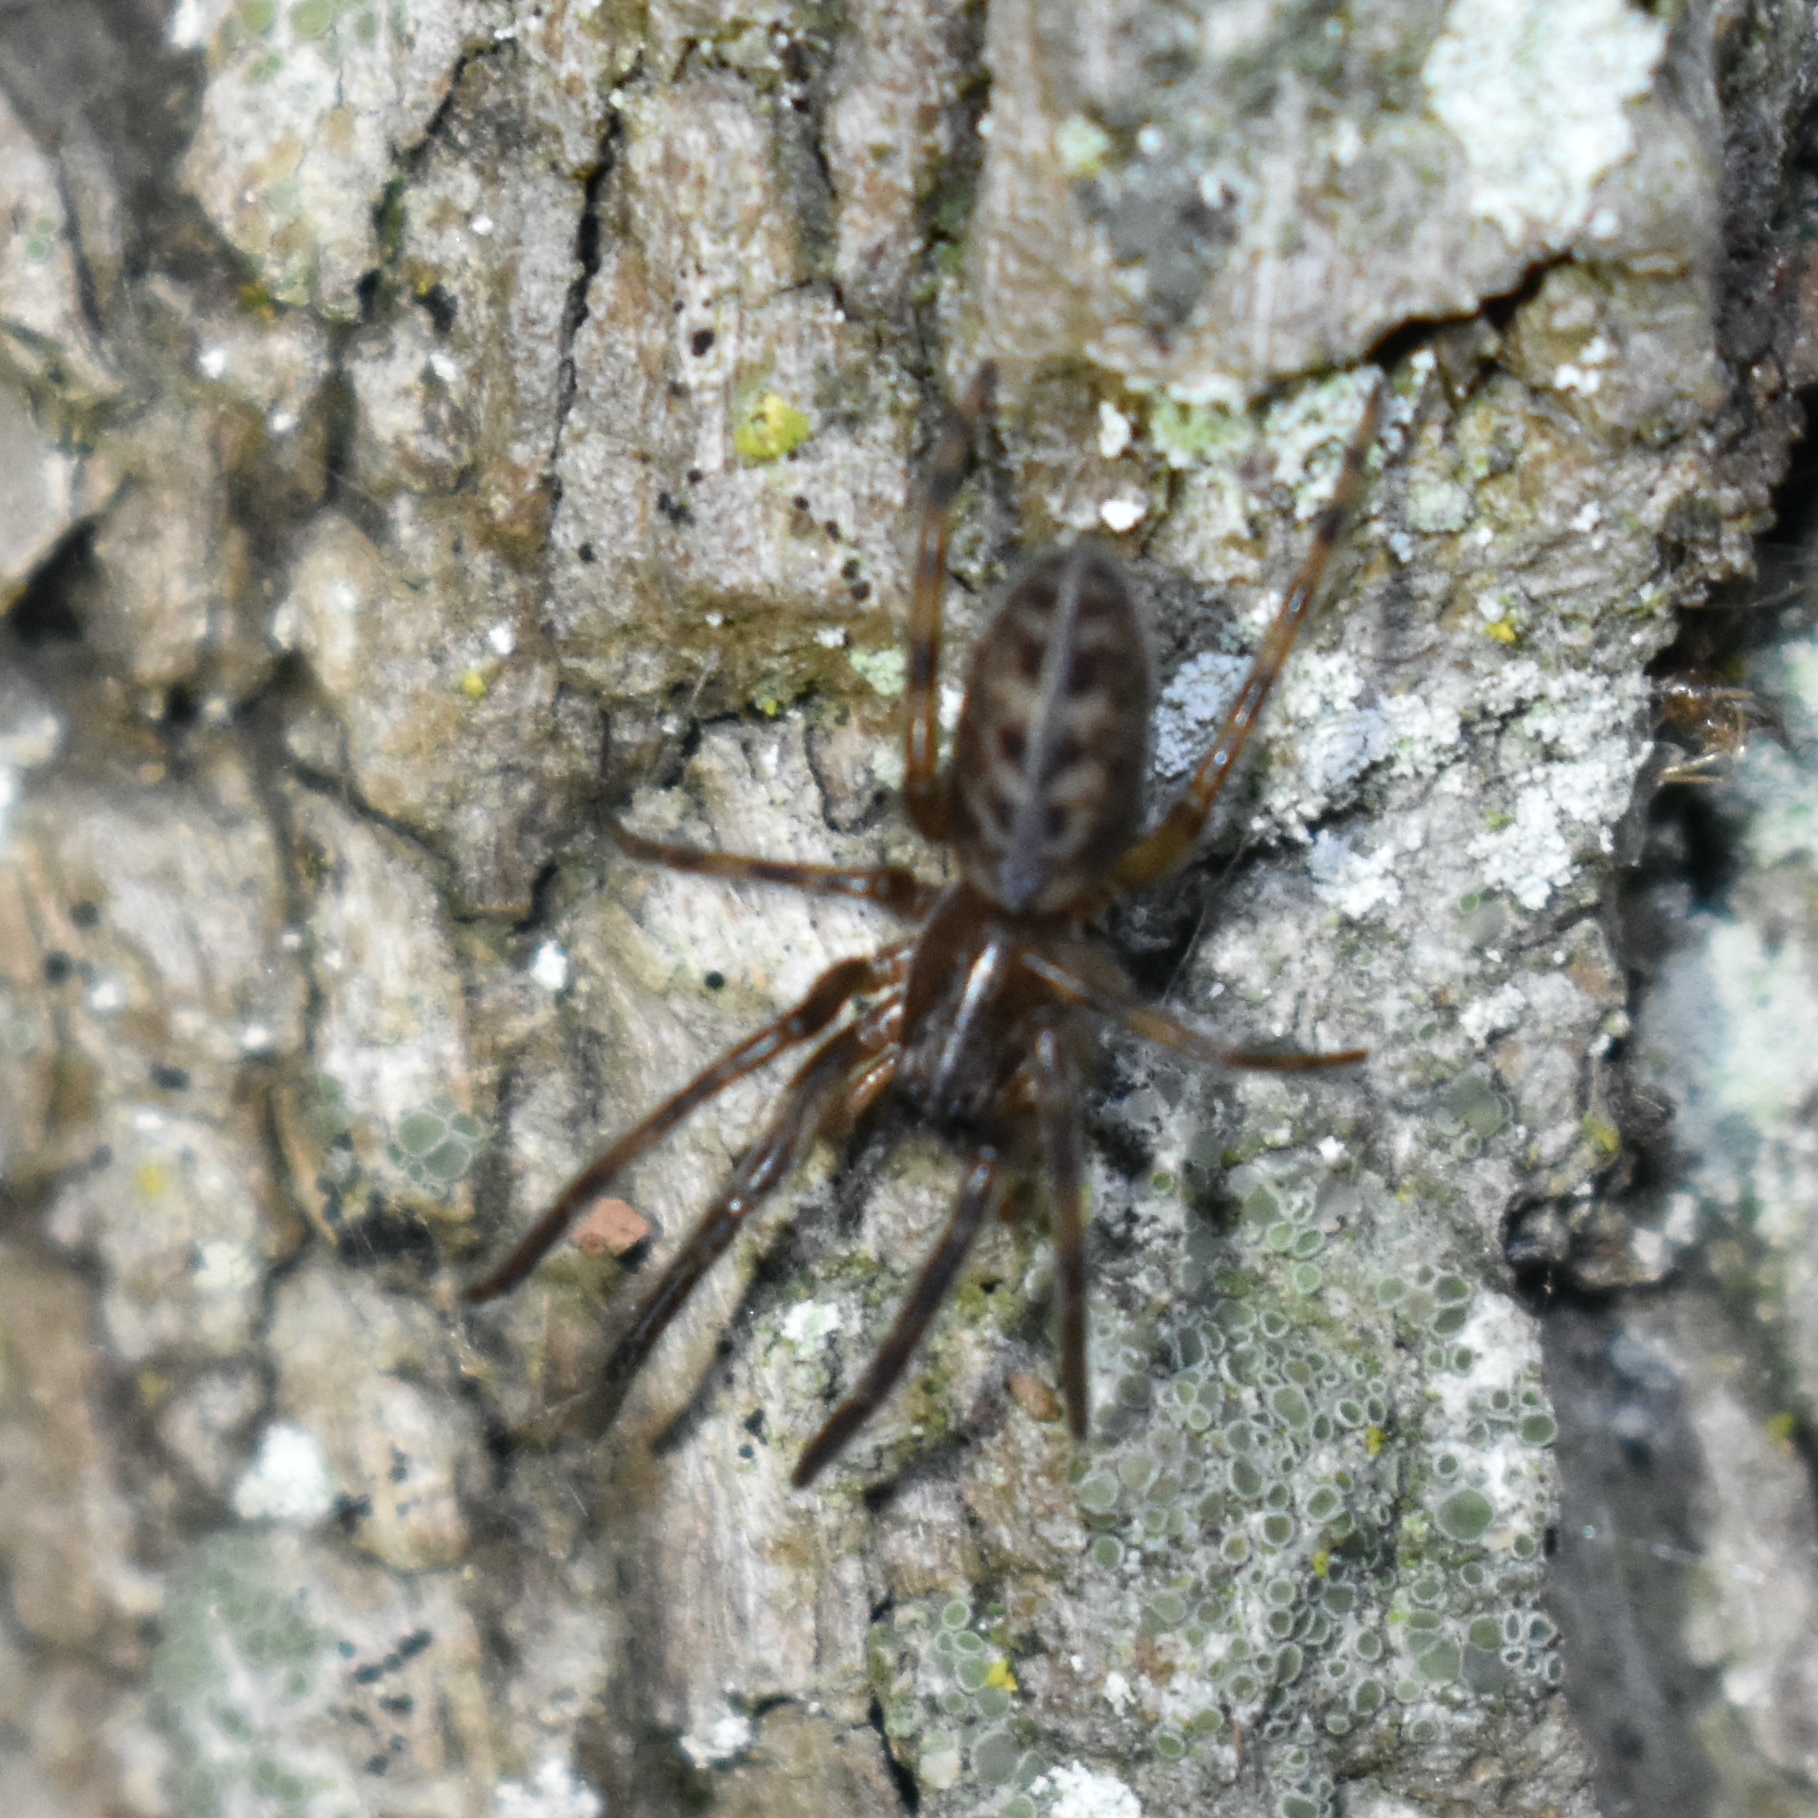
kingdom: Animalia
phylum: Arthropoda
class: Arachnida
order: Araneae
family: Segestriidae
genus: Segestria
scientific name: Segestria pacifica
